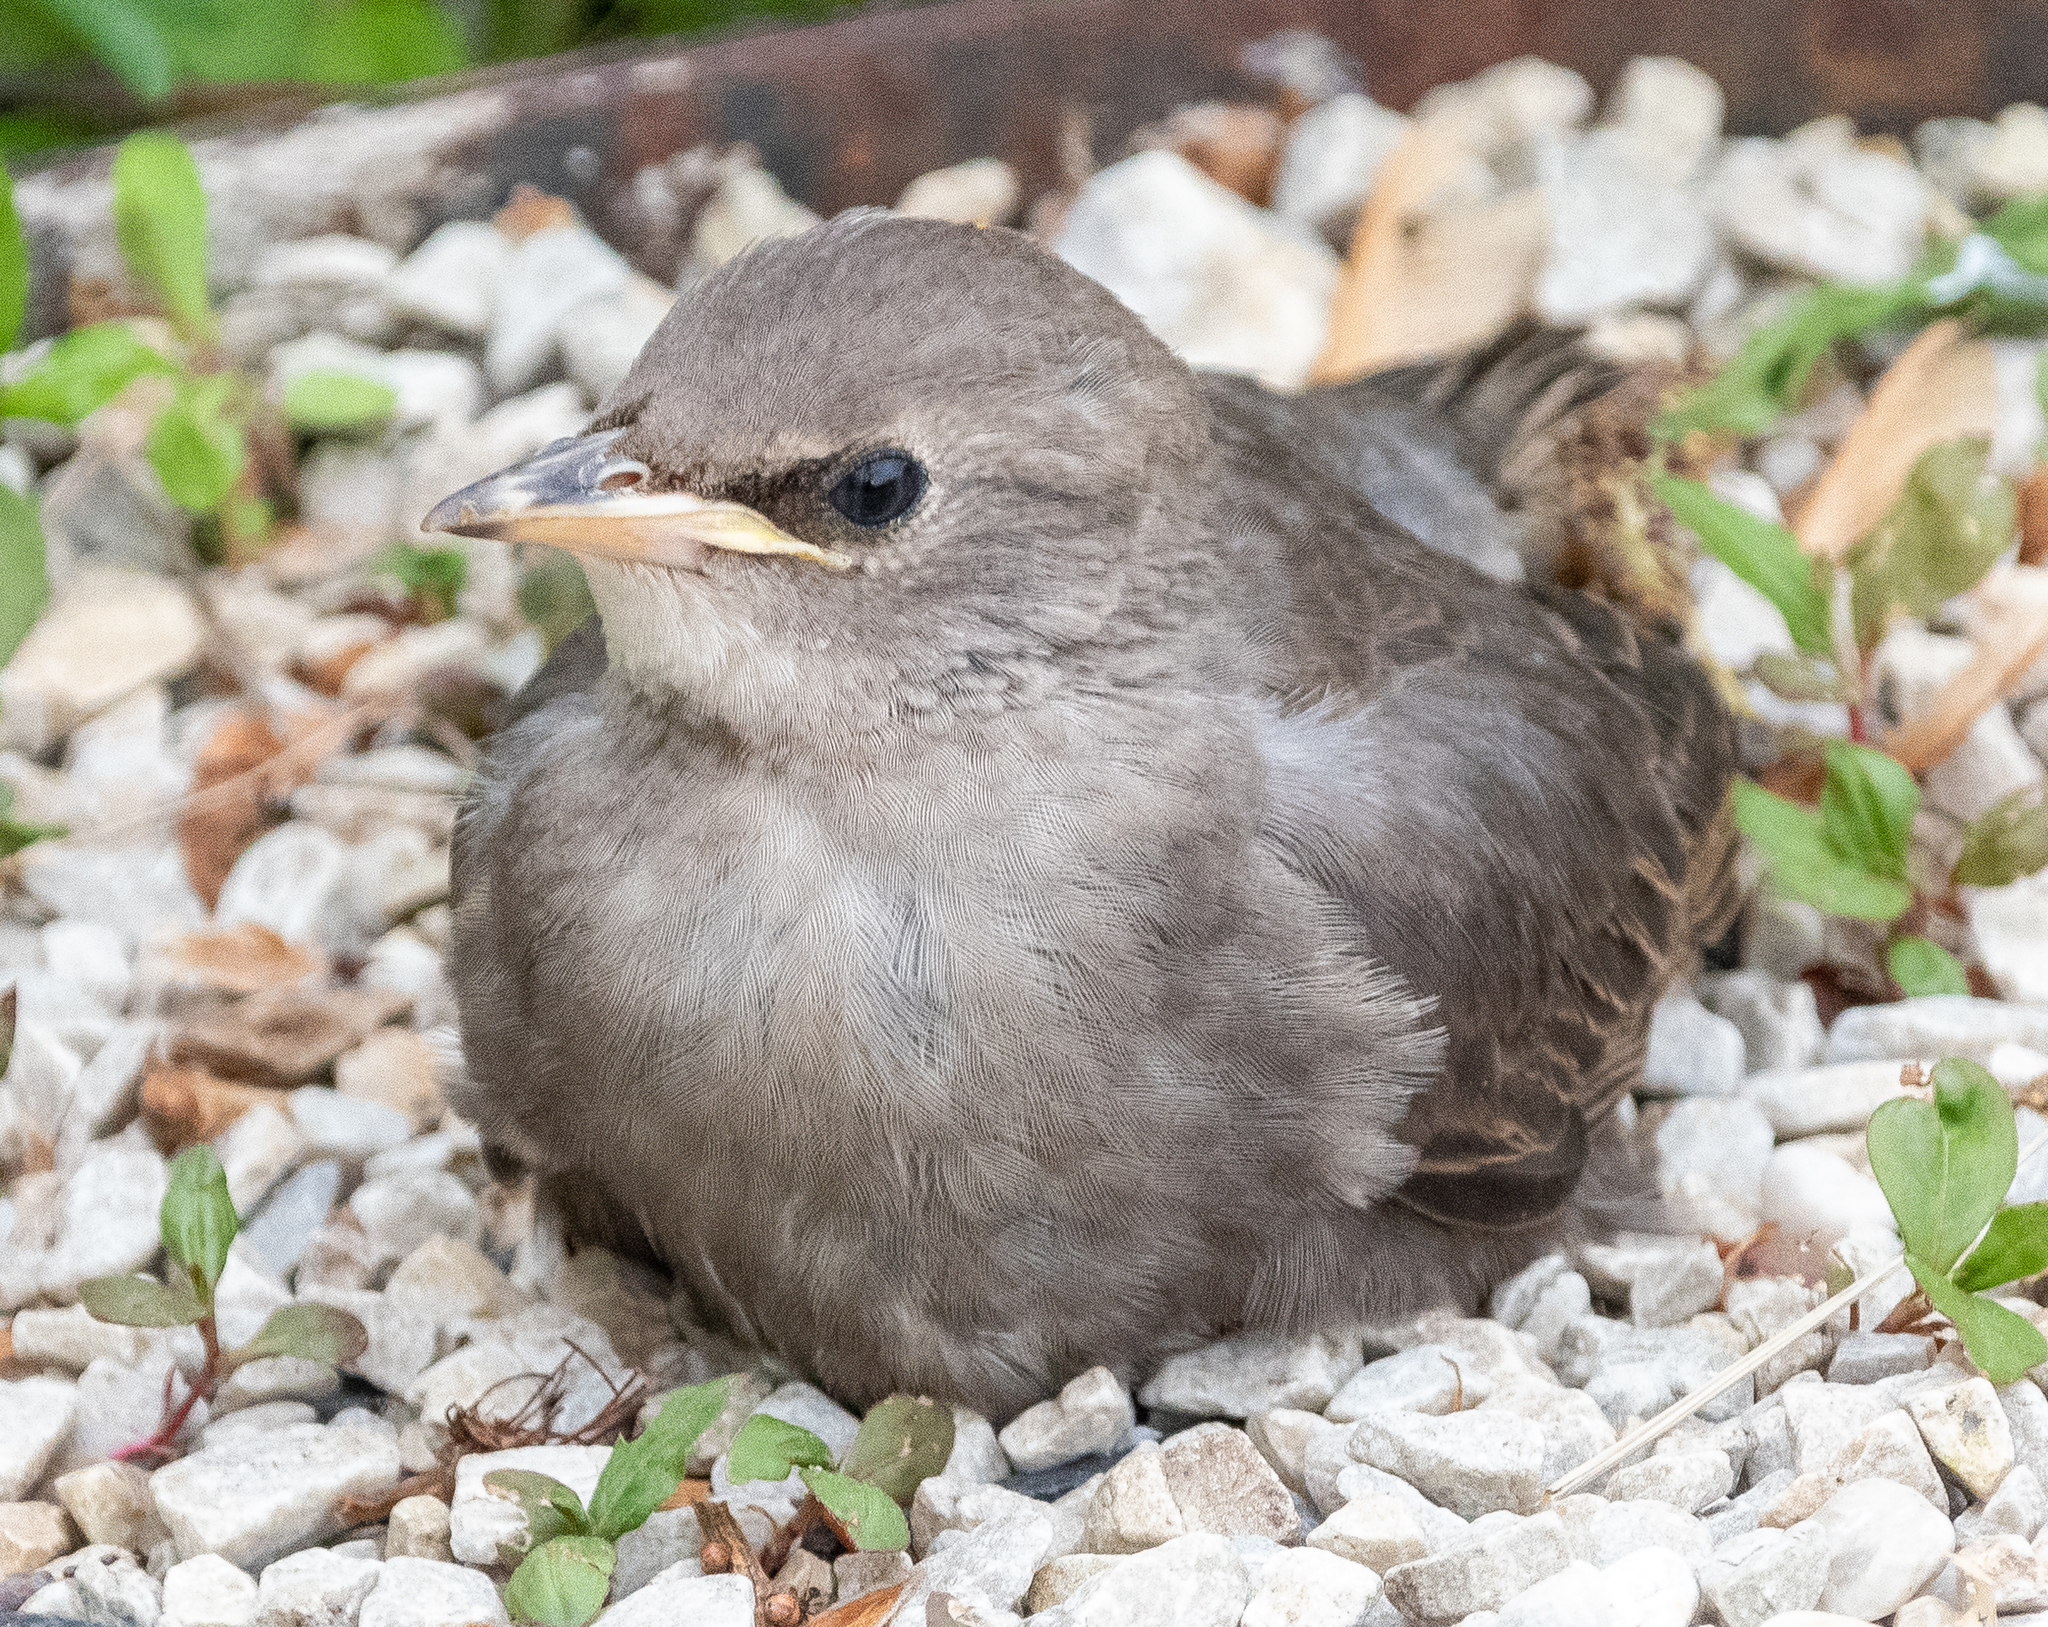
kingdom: Animalia
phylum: Chordata
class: Aves
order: Passeriformes
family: Sturnidae
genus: Sturnus
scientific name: Sturnus vulgaris
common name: Common starling
